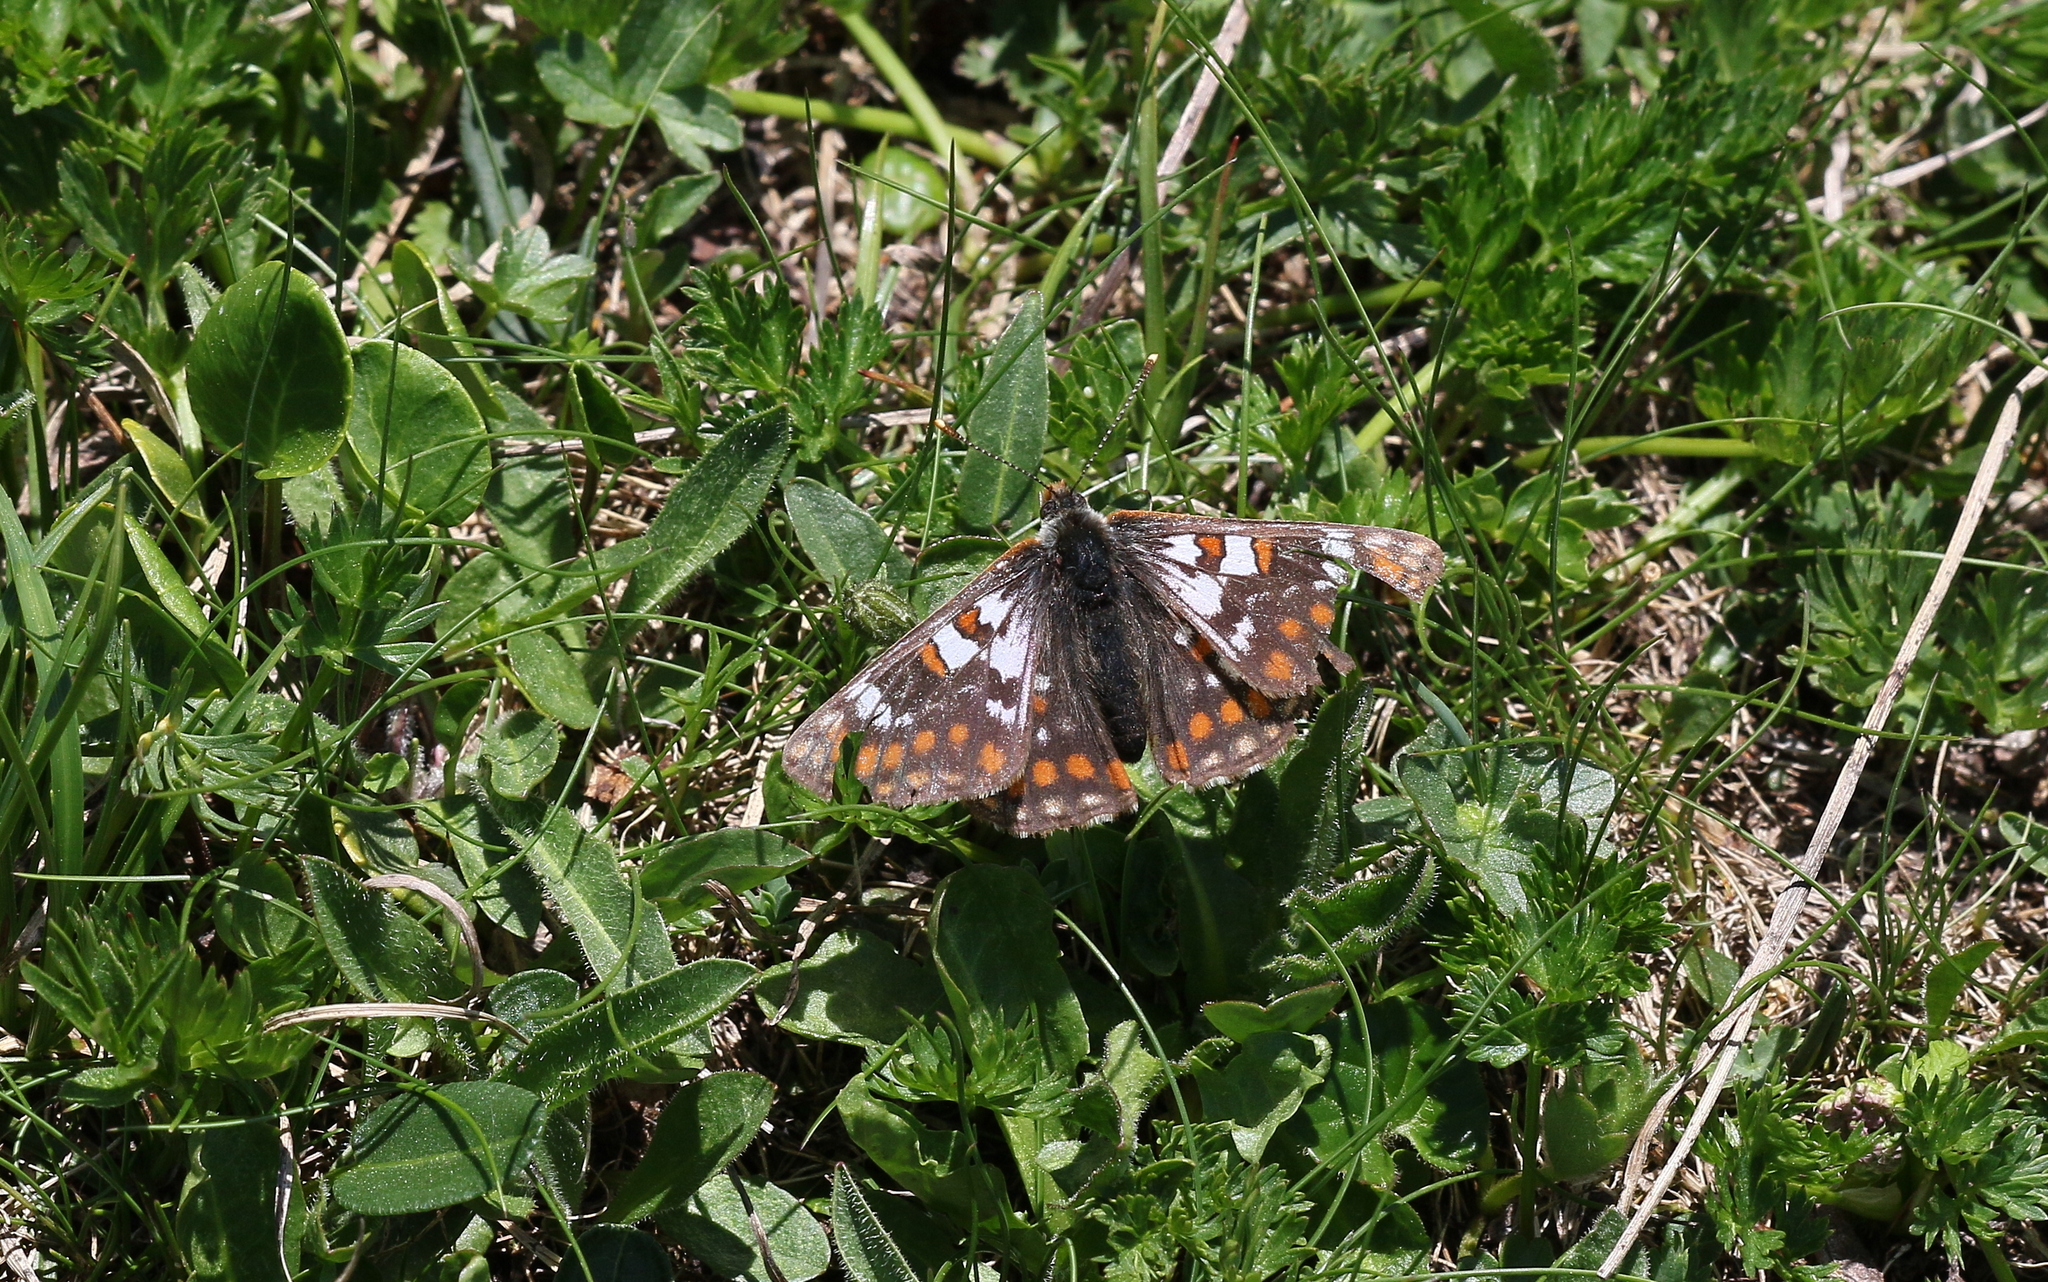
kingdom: Animalia
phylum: Arthropoda
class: Insecta
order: Lepidoptera
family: Nymphalidae
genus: Hypodryas
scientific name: Hypodryas cynthia
